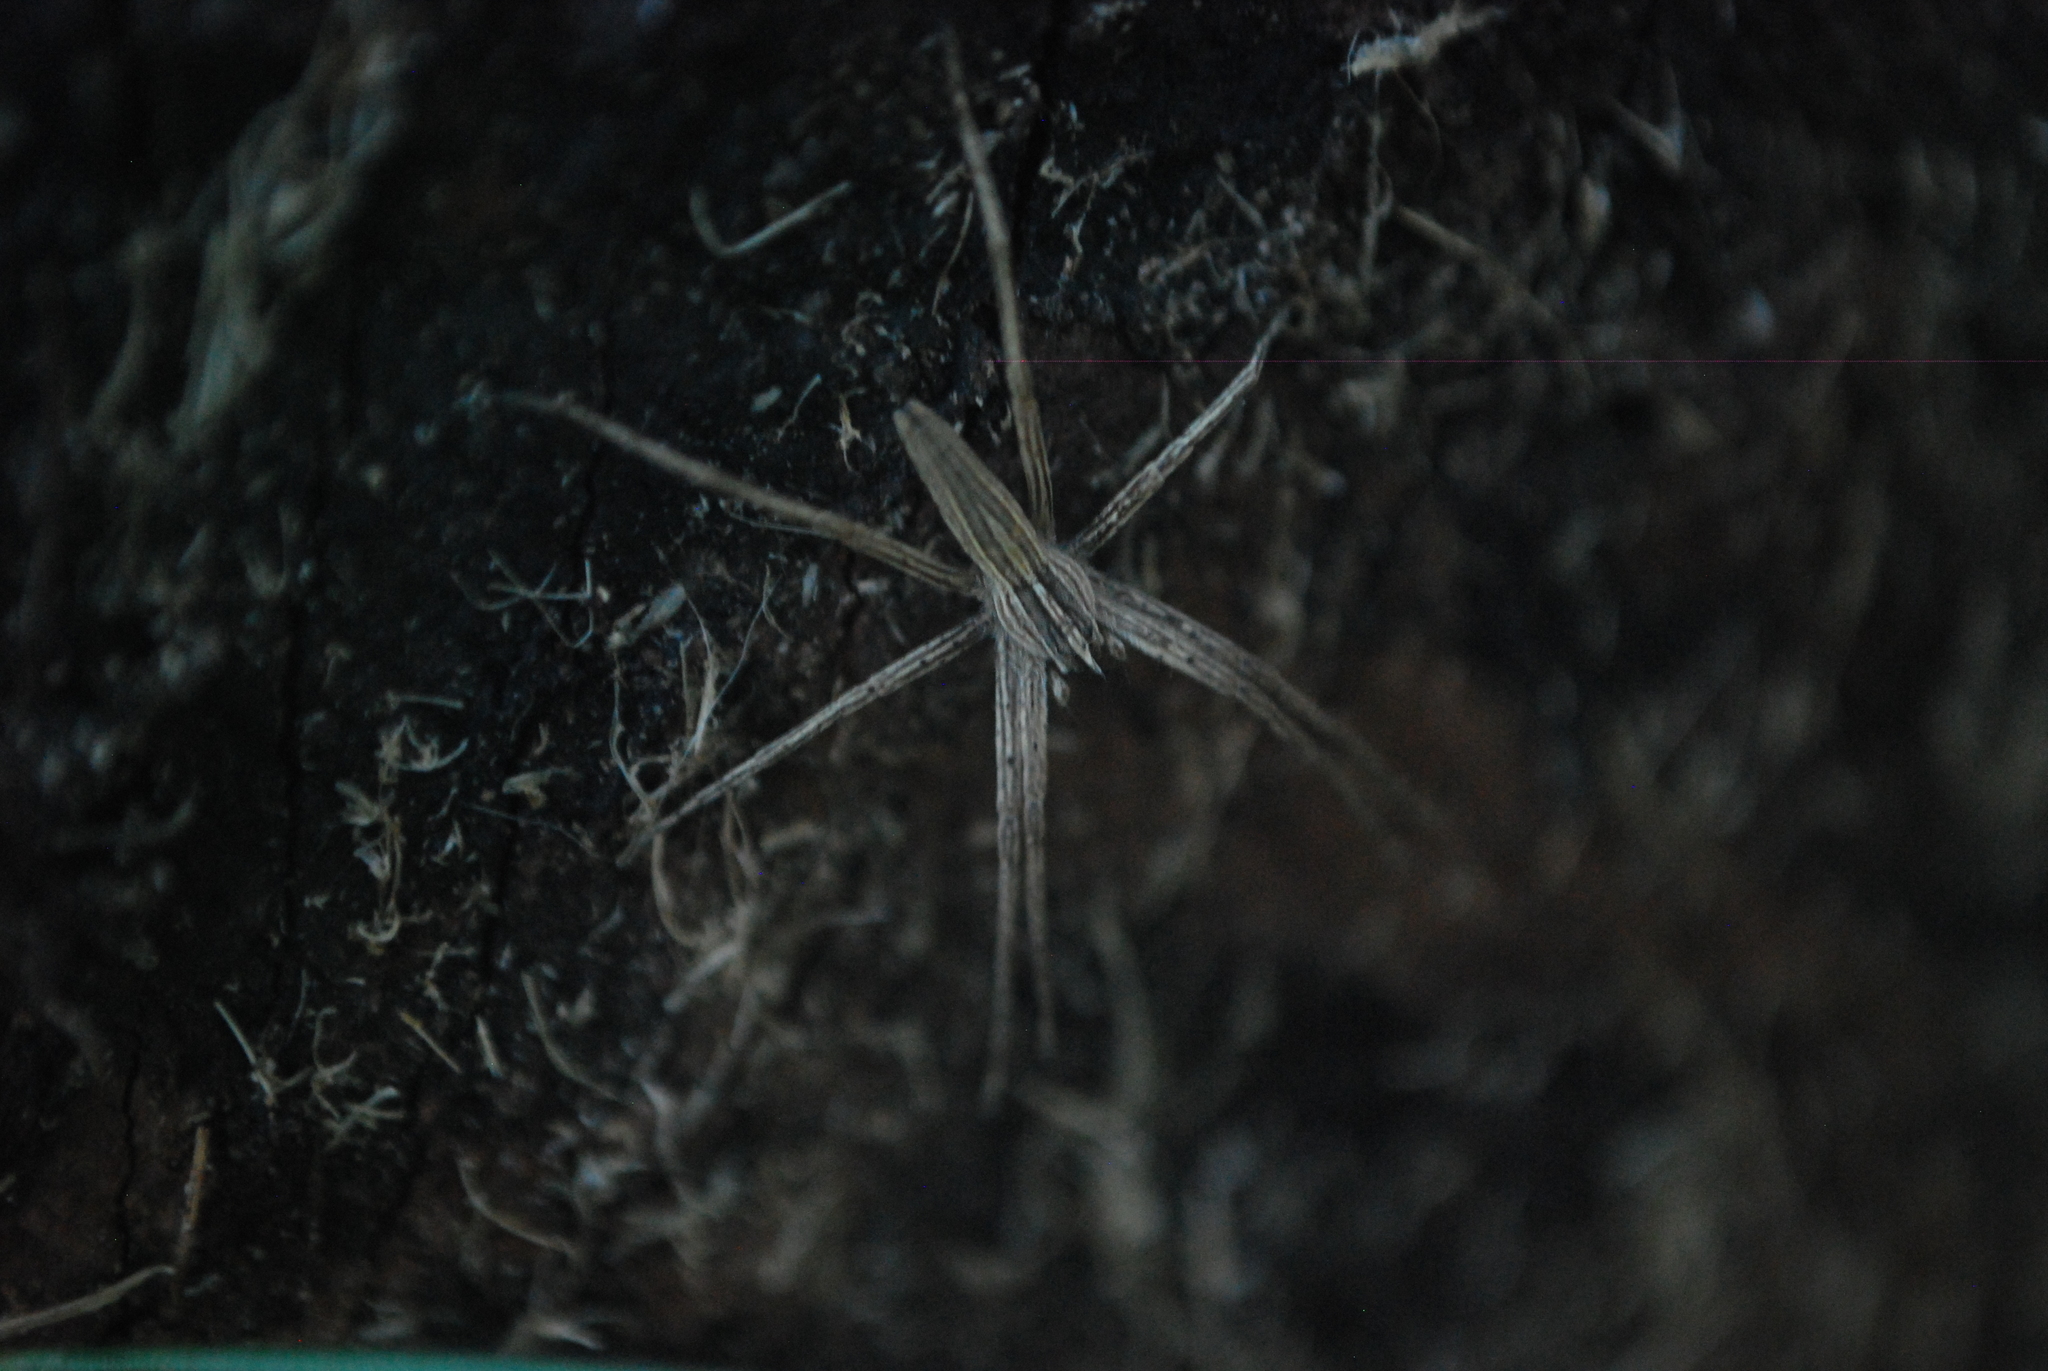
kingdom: Animalia
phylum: Arthropoda
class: Arachnida
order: Araneae
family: Pisauridae
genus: Pisaurina
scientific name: Pisaurina dubia
